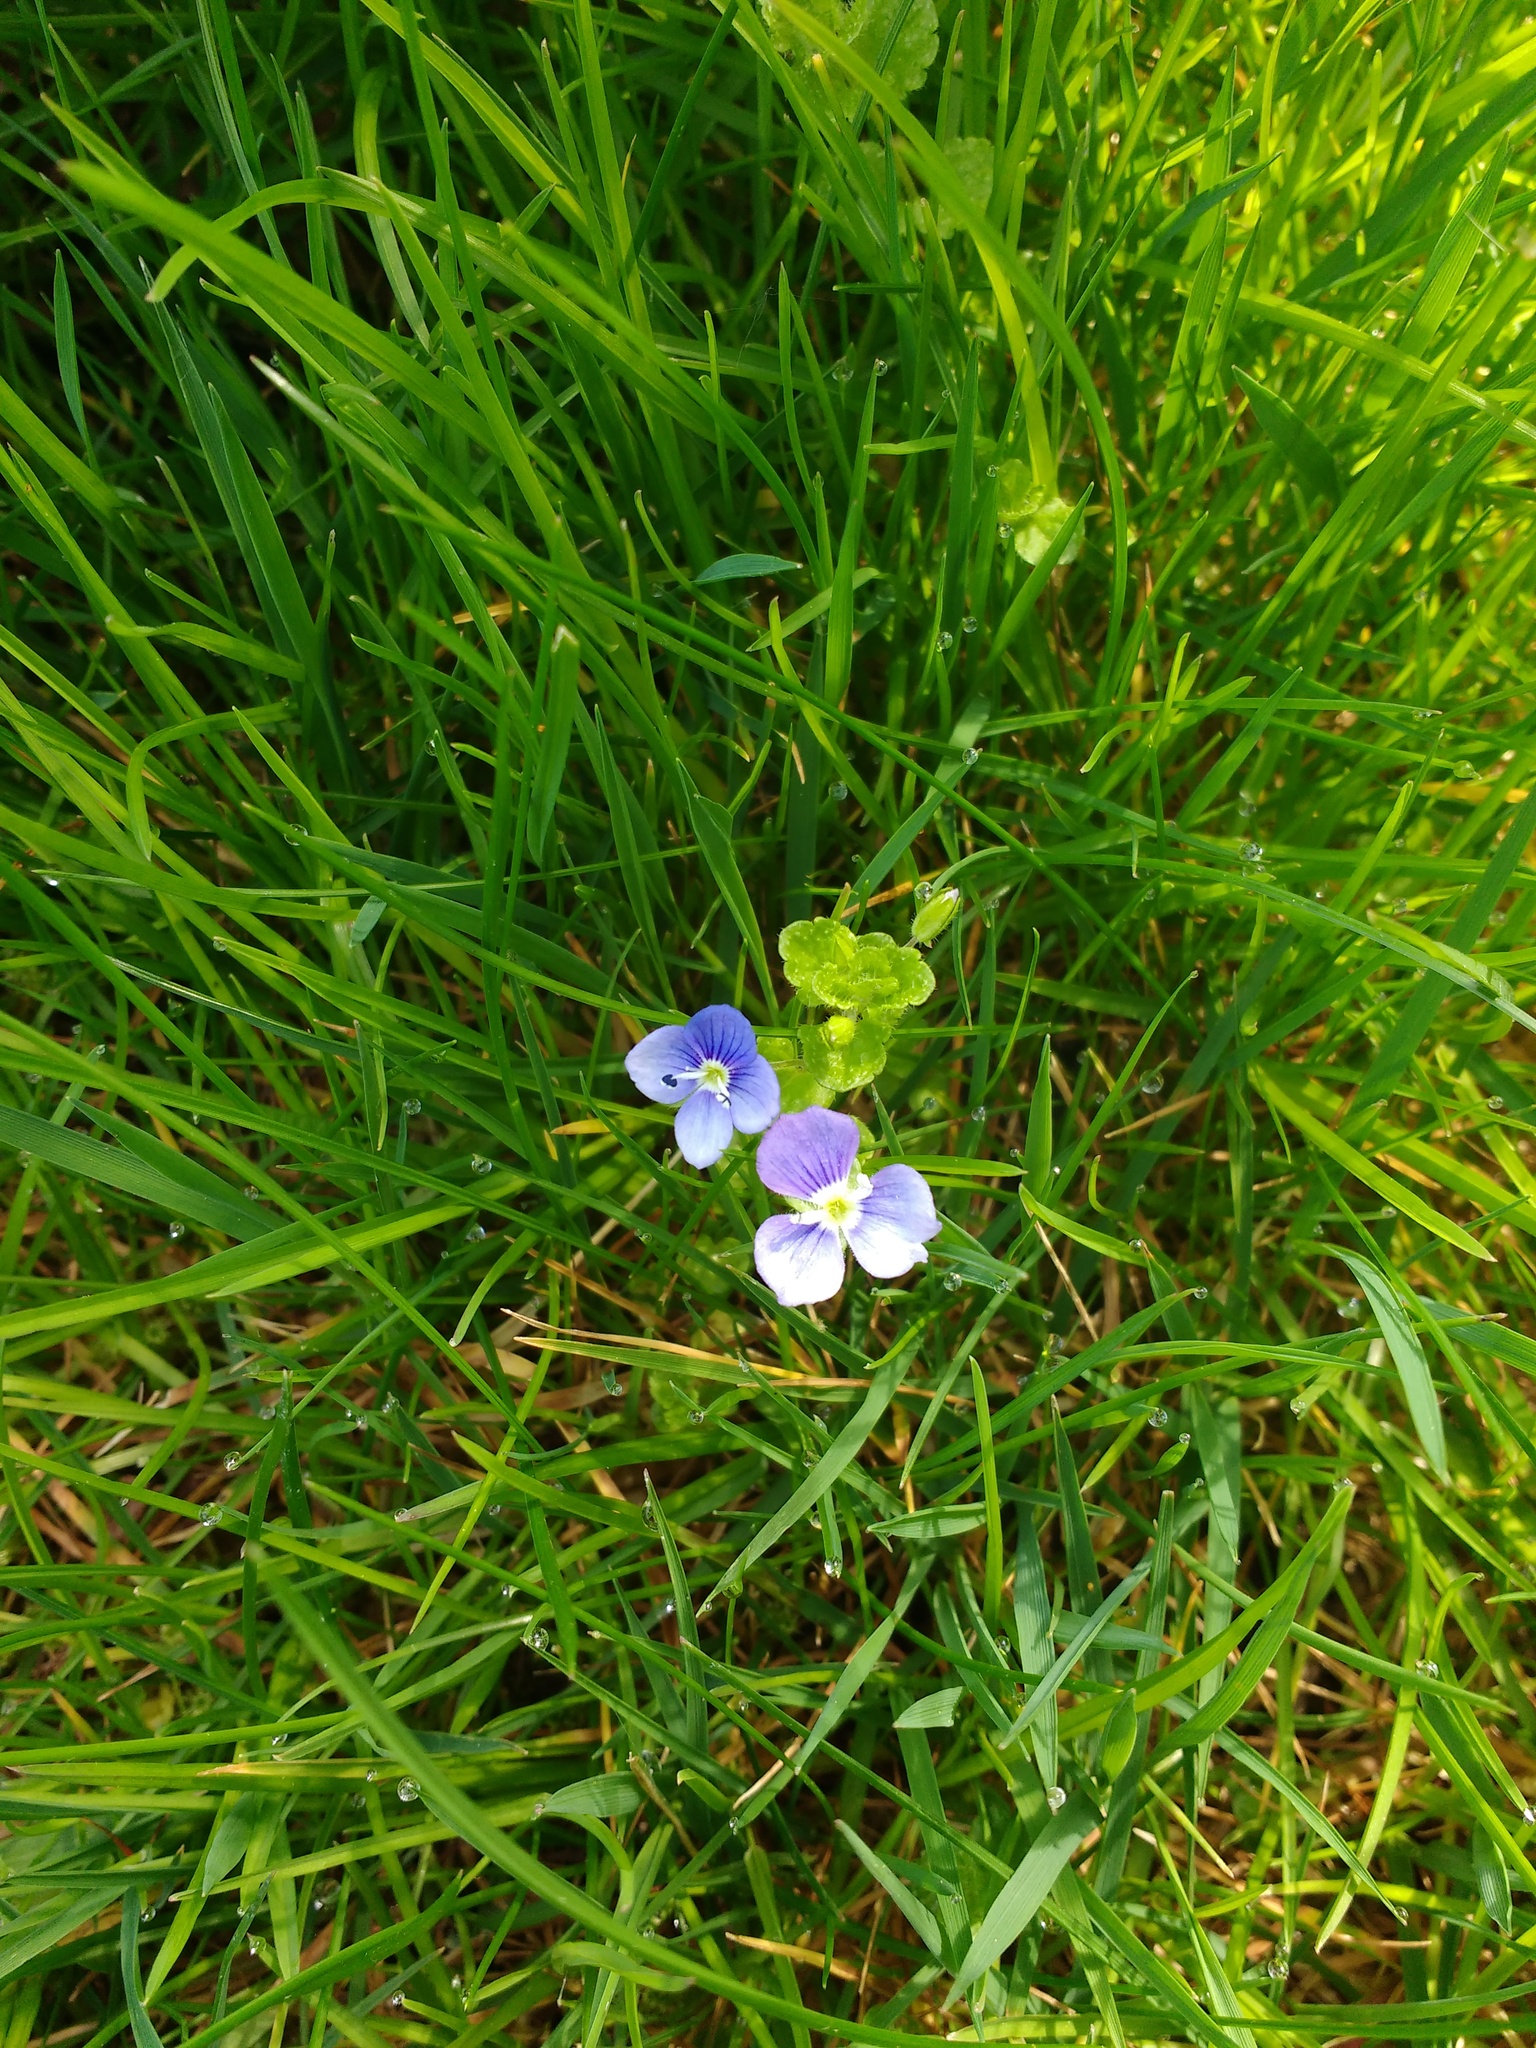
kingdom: Plantae
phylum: Tracheophyta
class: Magnoliopsida
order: Lamiales
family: Plantaginaceae
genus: Veronica
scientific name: Veronica filiformis
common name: Slender speedwell
